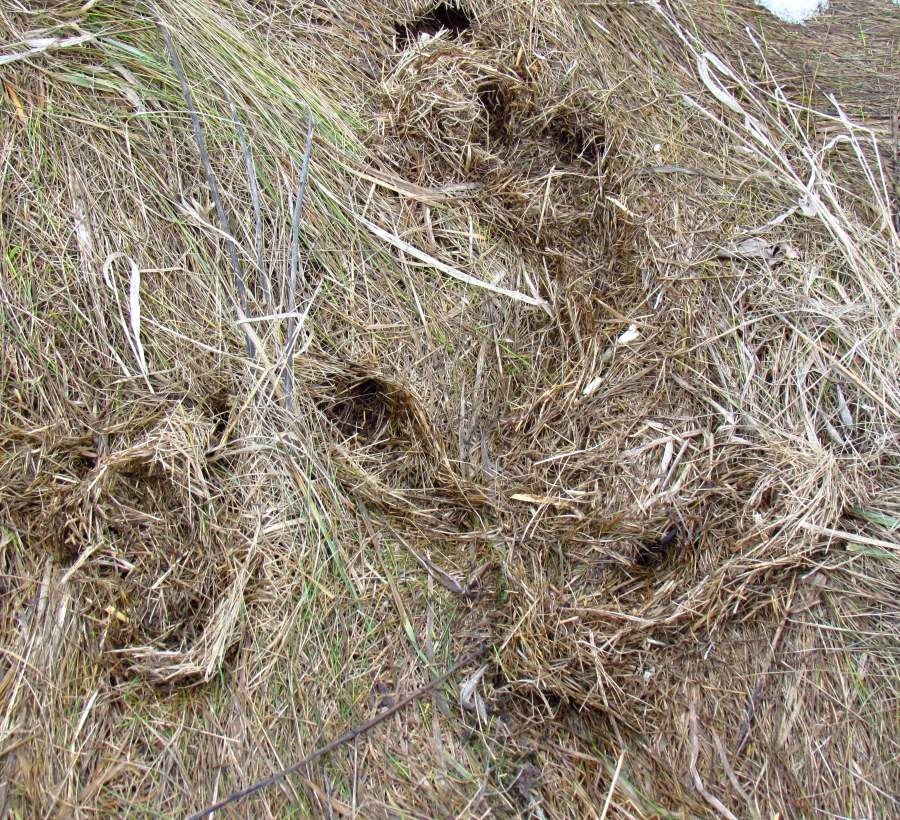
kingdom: Animalia
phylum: Chordata
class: Mammalia
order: Rodentia
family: Cricetidae
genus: Microtus
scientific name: Microtus pennsylvanicus
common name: Meadow vole
